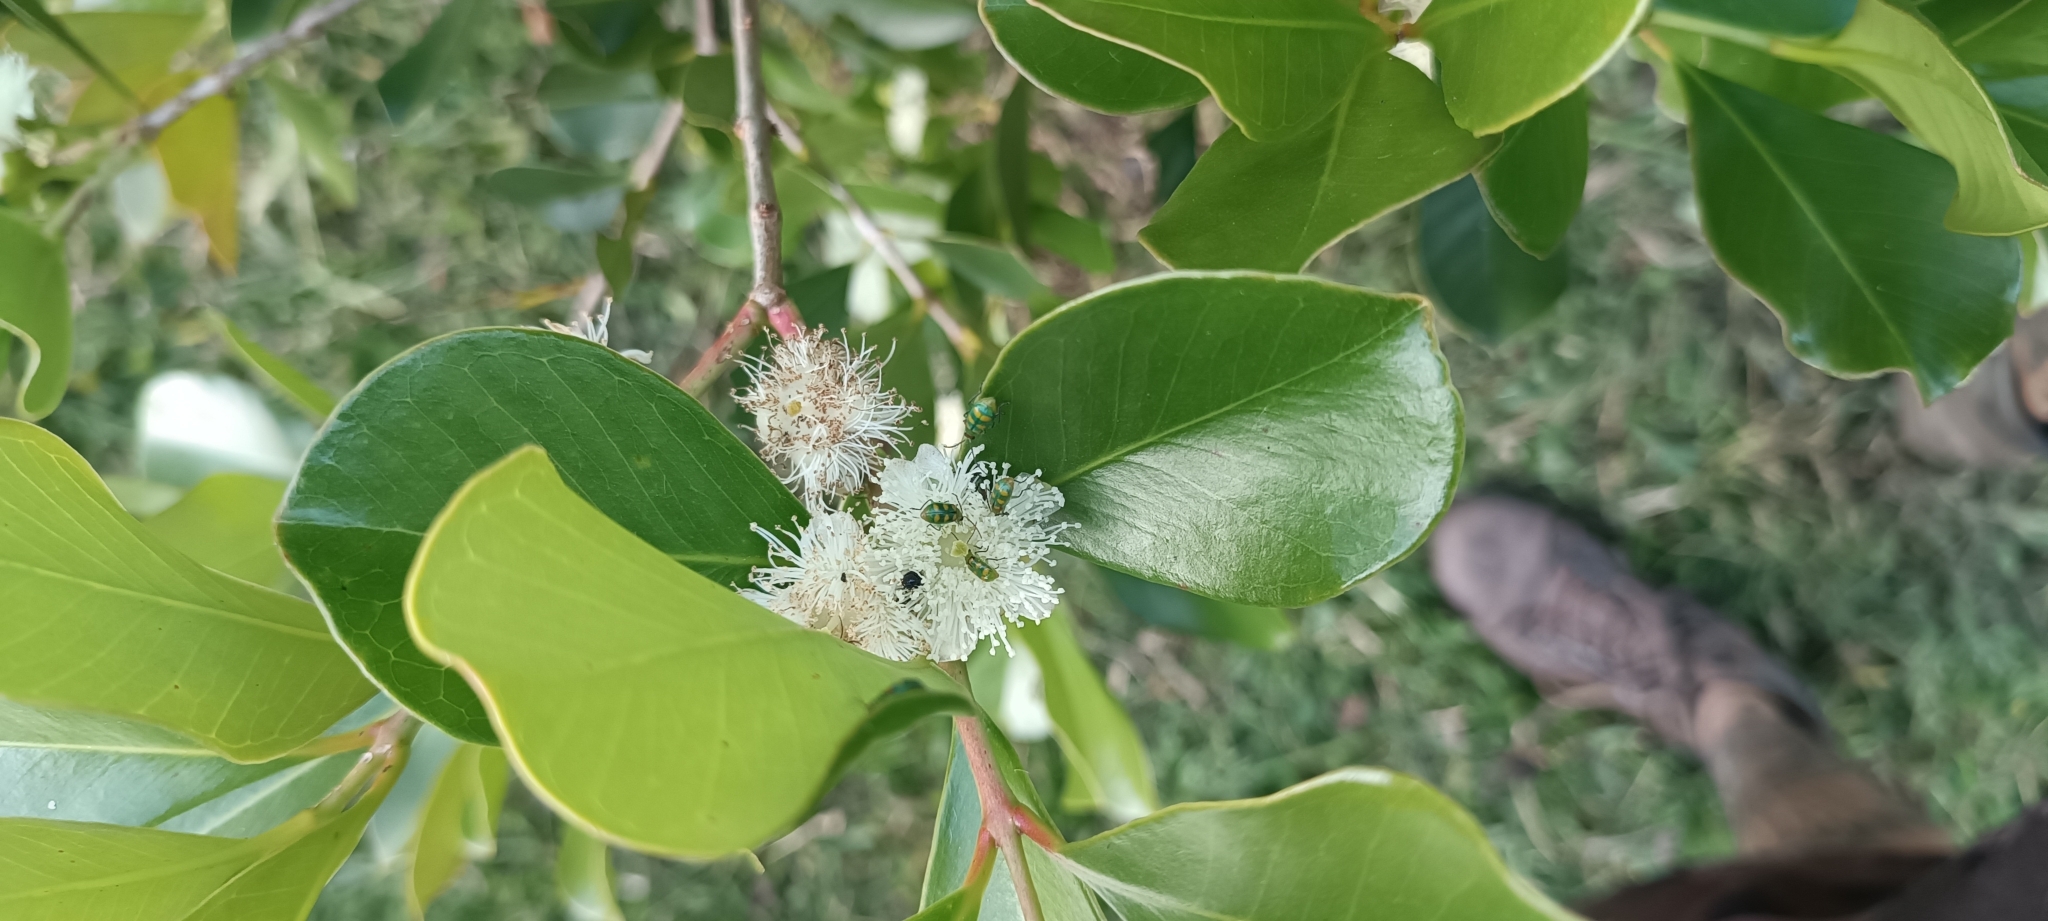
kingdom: Plantae
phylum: Tracheophyta
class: Magnoliopsida
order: Myrtales
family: Myrtaceae
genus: Psidium
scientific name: Psidium cattleianum
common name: Strawberry guava
